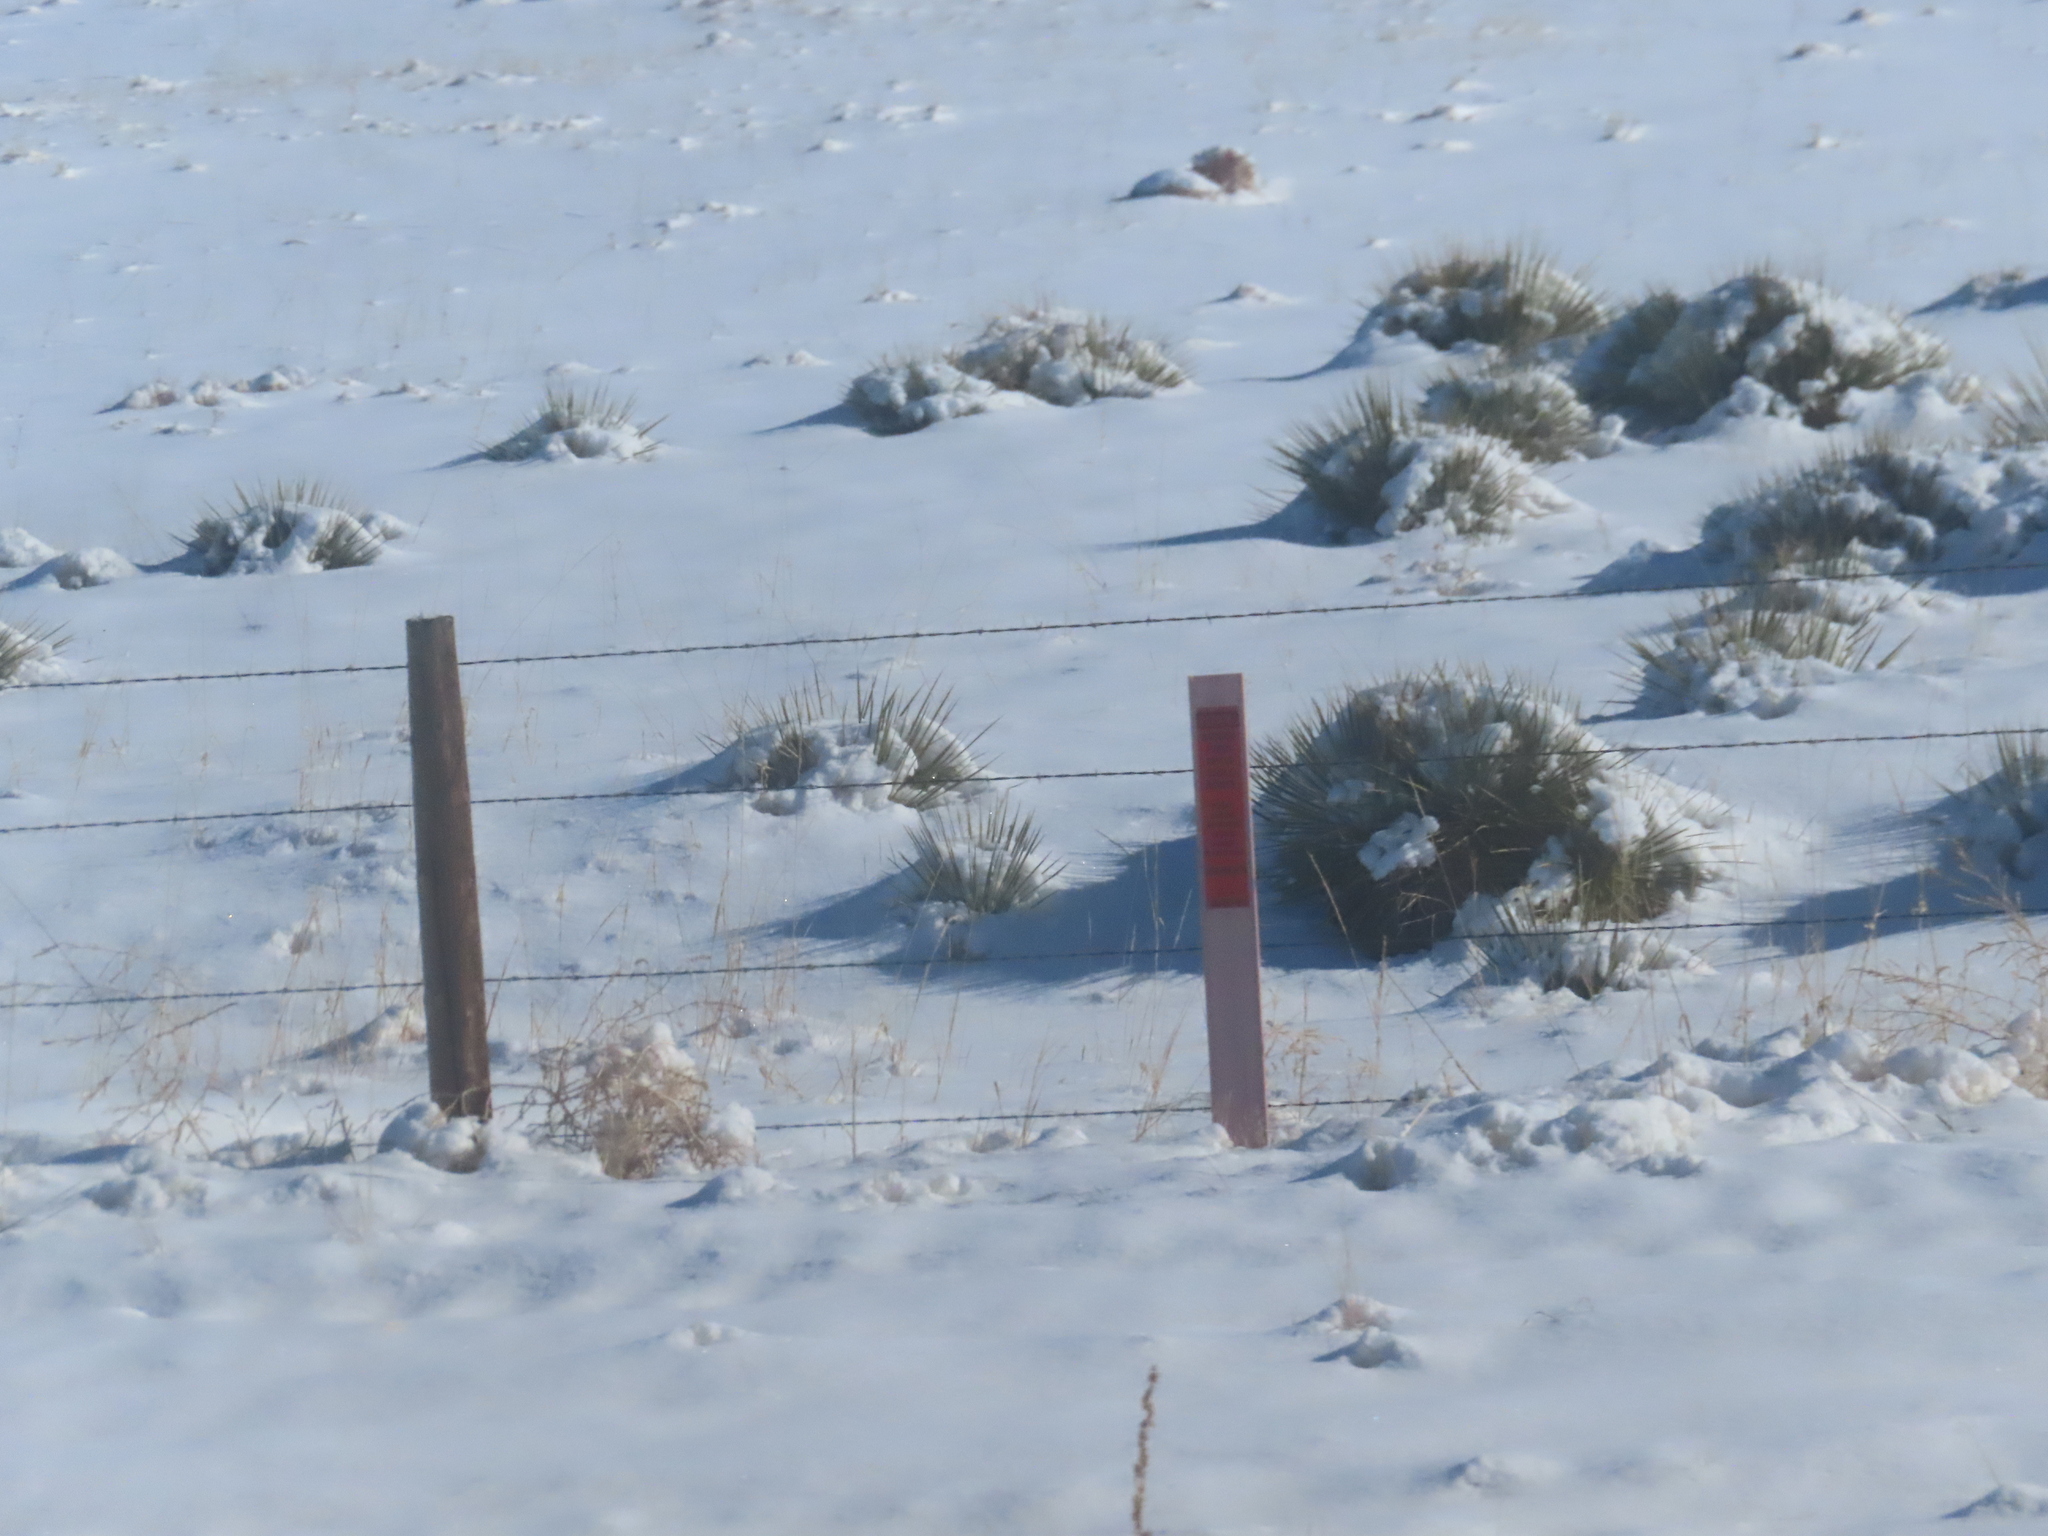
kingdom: Plantae
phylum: Tracheophyta
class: Liliopsida
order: Asparagales
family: Asparagaceae
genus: Yucca
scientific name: Yucca glauca
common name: Great plains yucca
